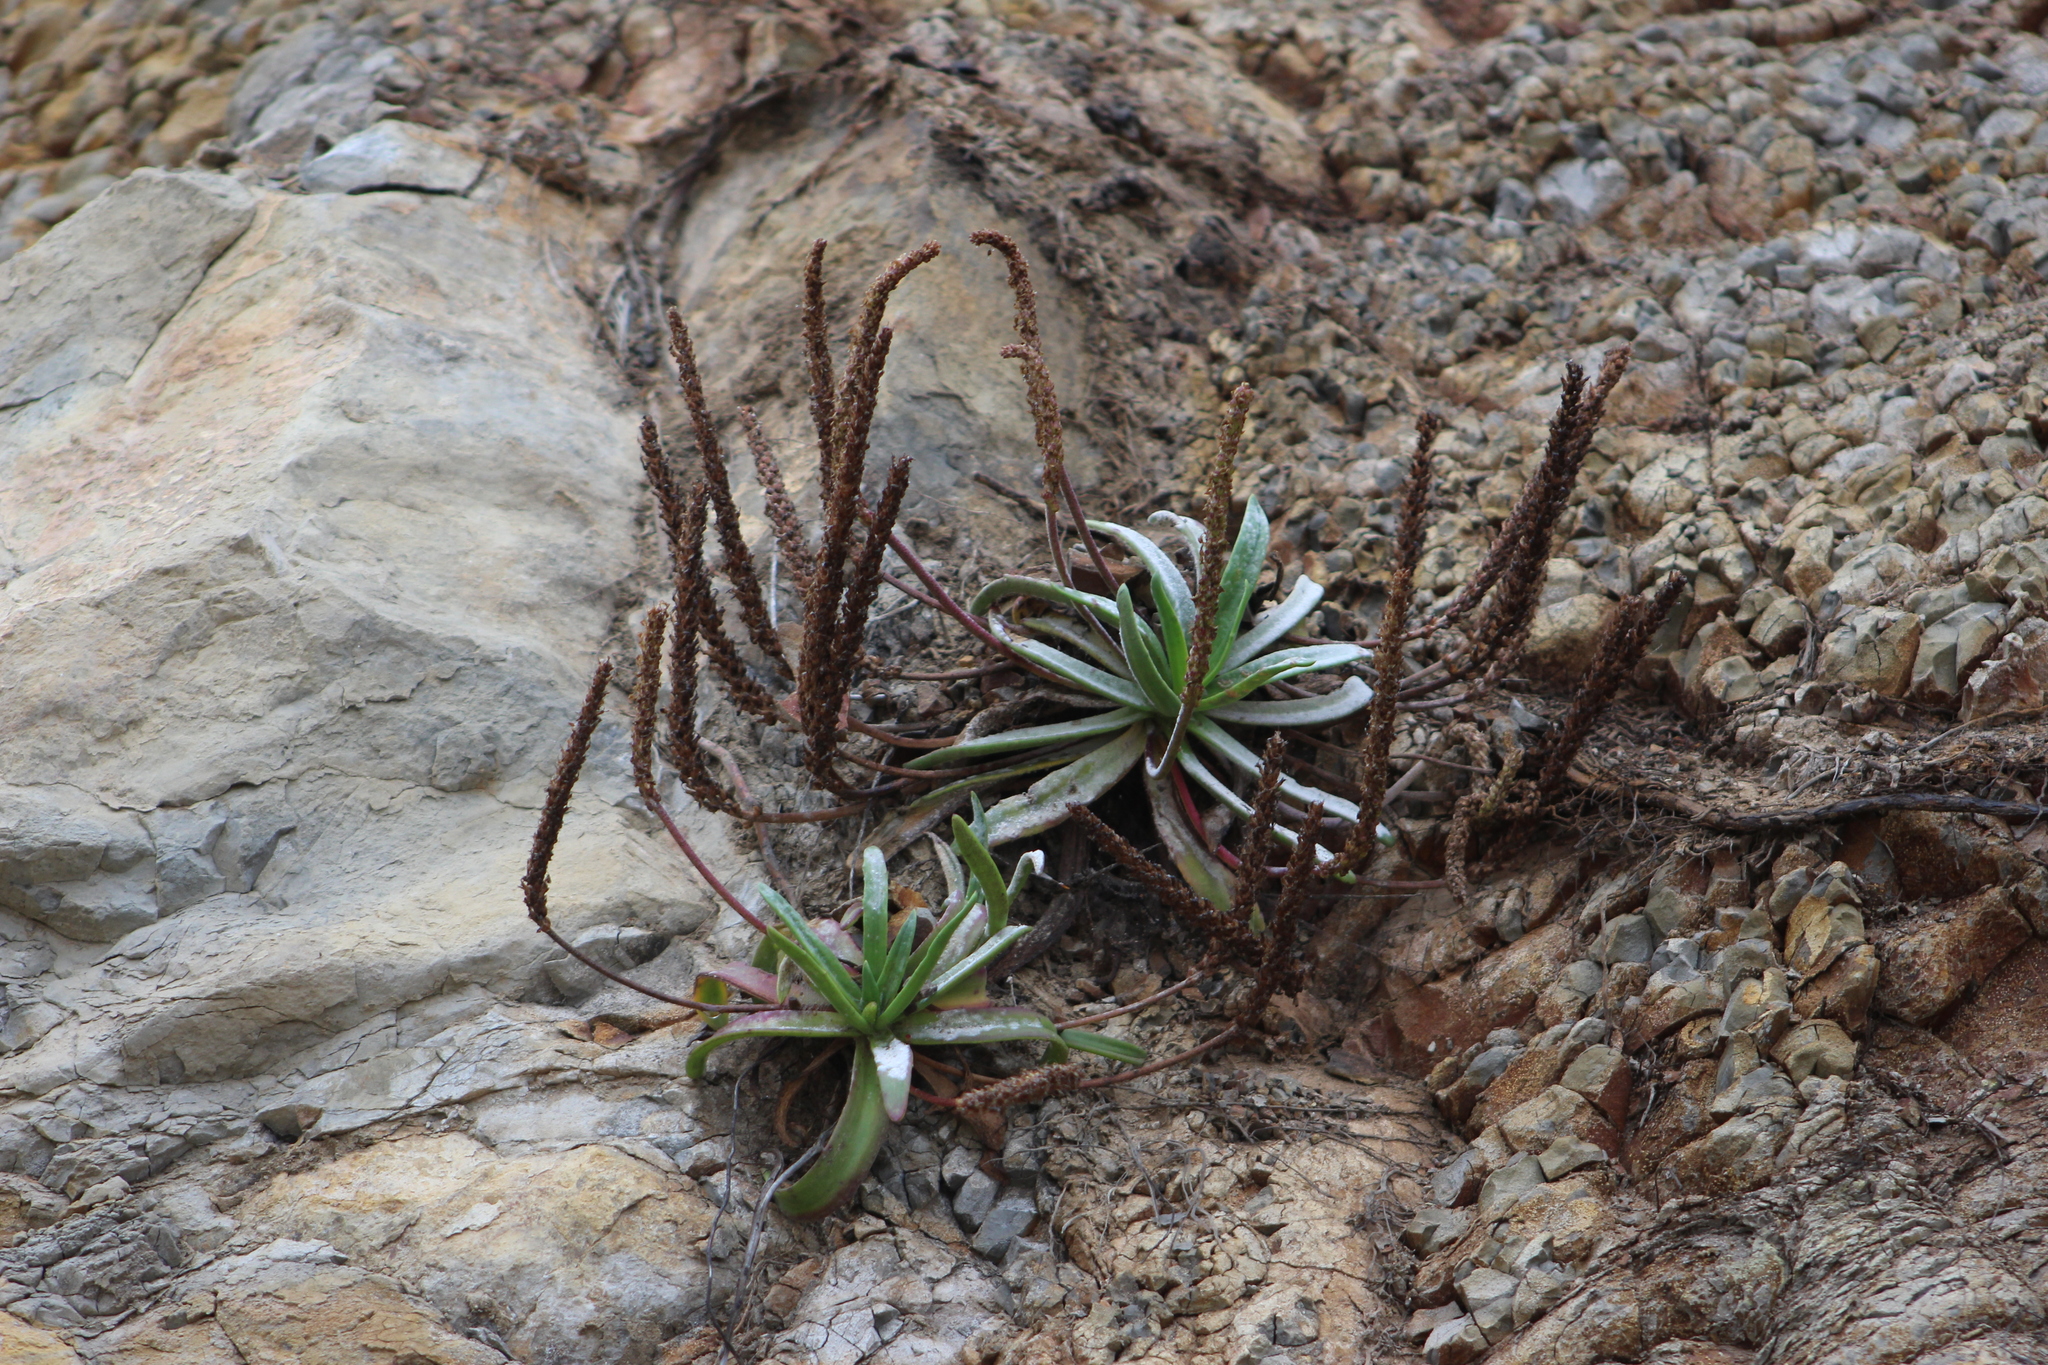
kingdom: Plantae
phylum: Tracheophyta
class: Magnoliopsida
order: Lamiales
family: Plantaginaceae
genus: Plantago
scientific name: Plantago maritima
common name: Sea plantain
